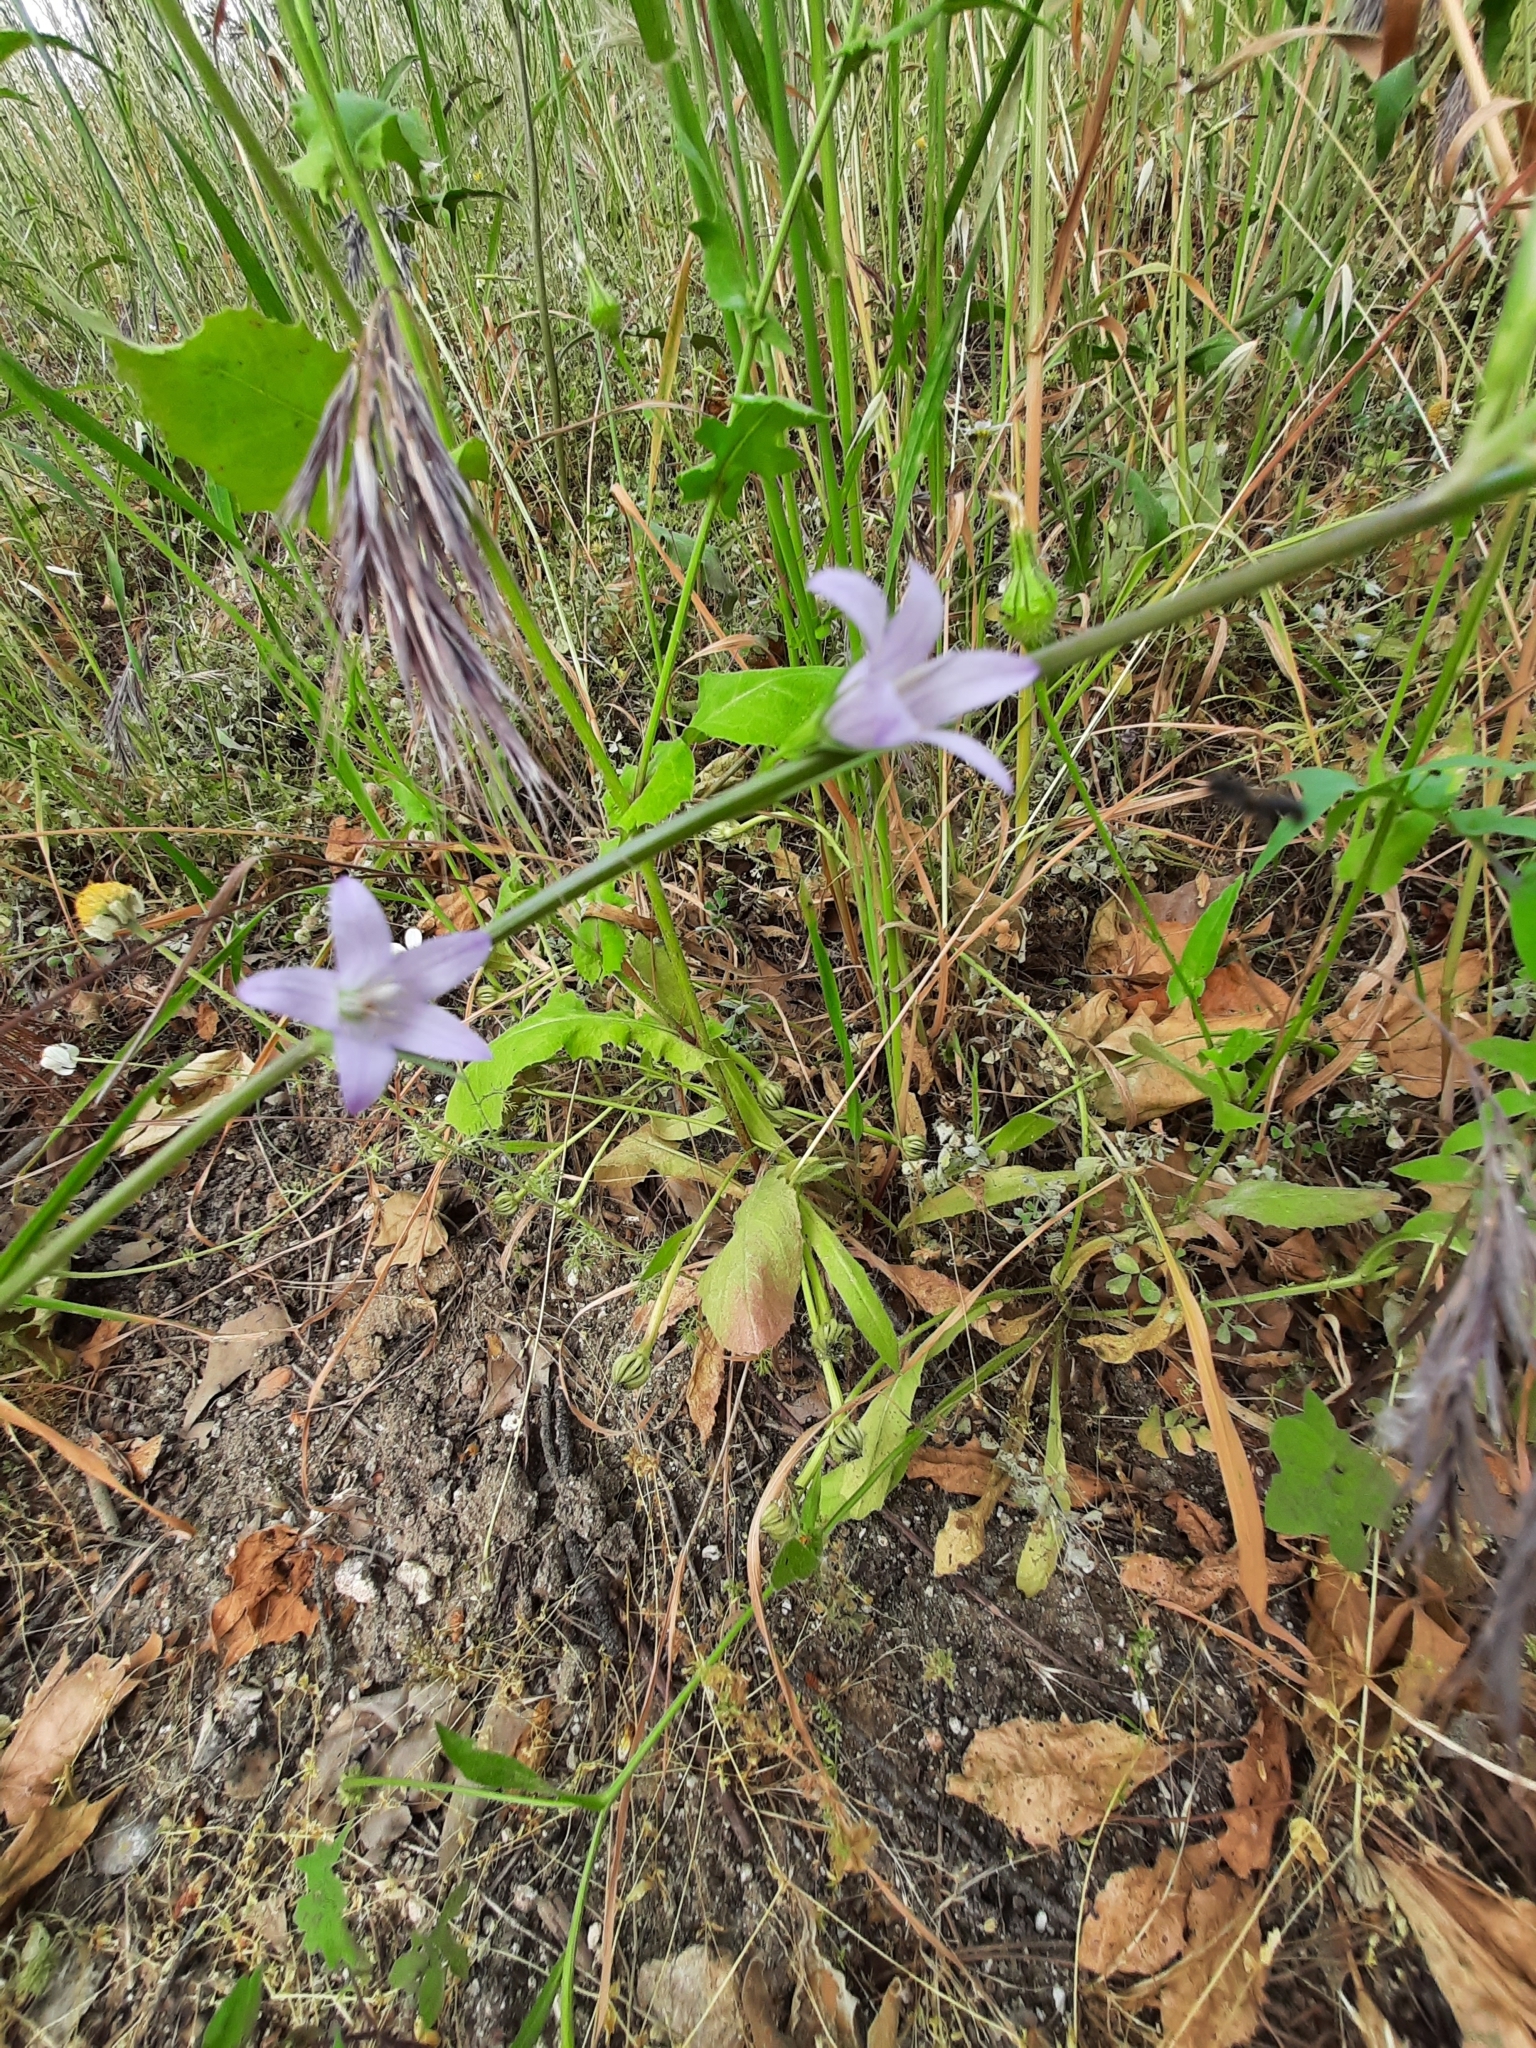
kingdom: Plantae
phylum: Tracheophyta
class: Magnoliopsida
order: Asterales
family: Campanulaceae
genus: Campanula
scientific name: Campanula rapunculus
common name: Rampion bellflower
